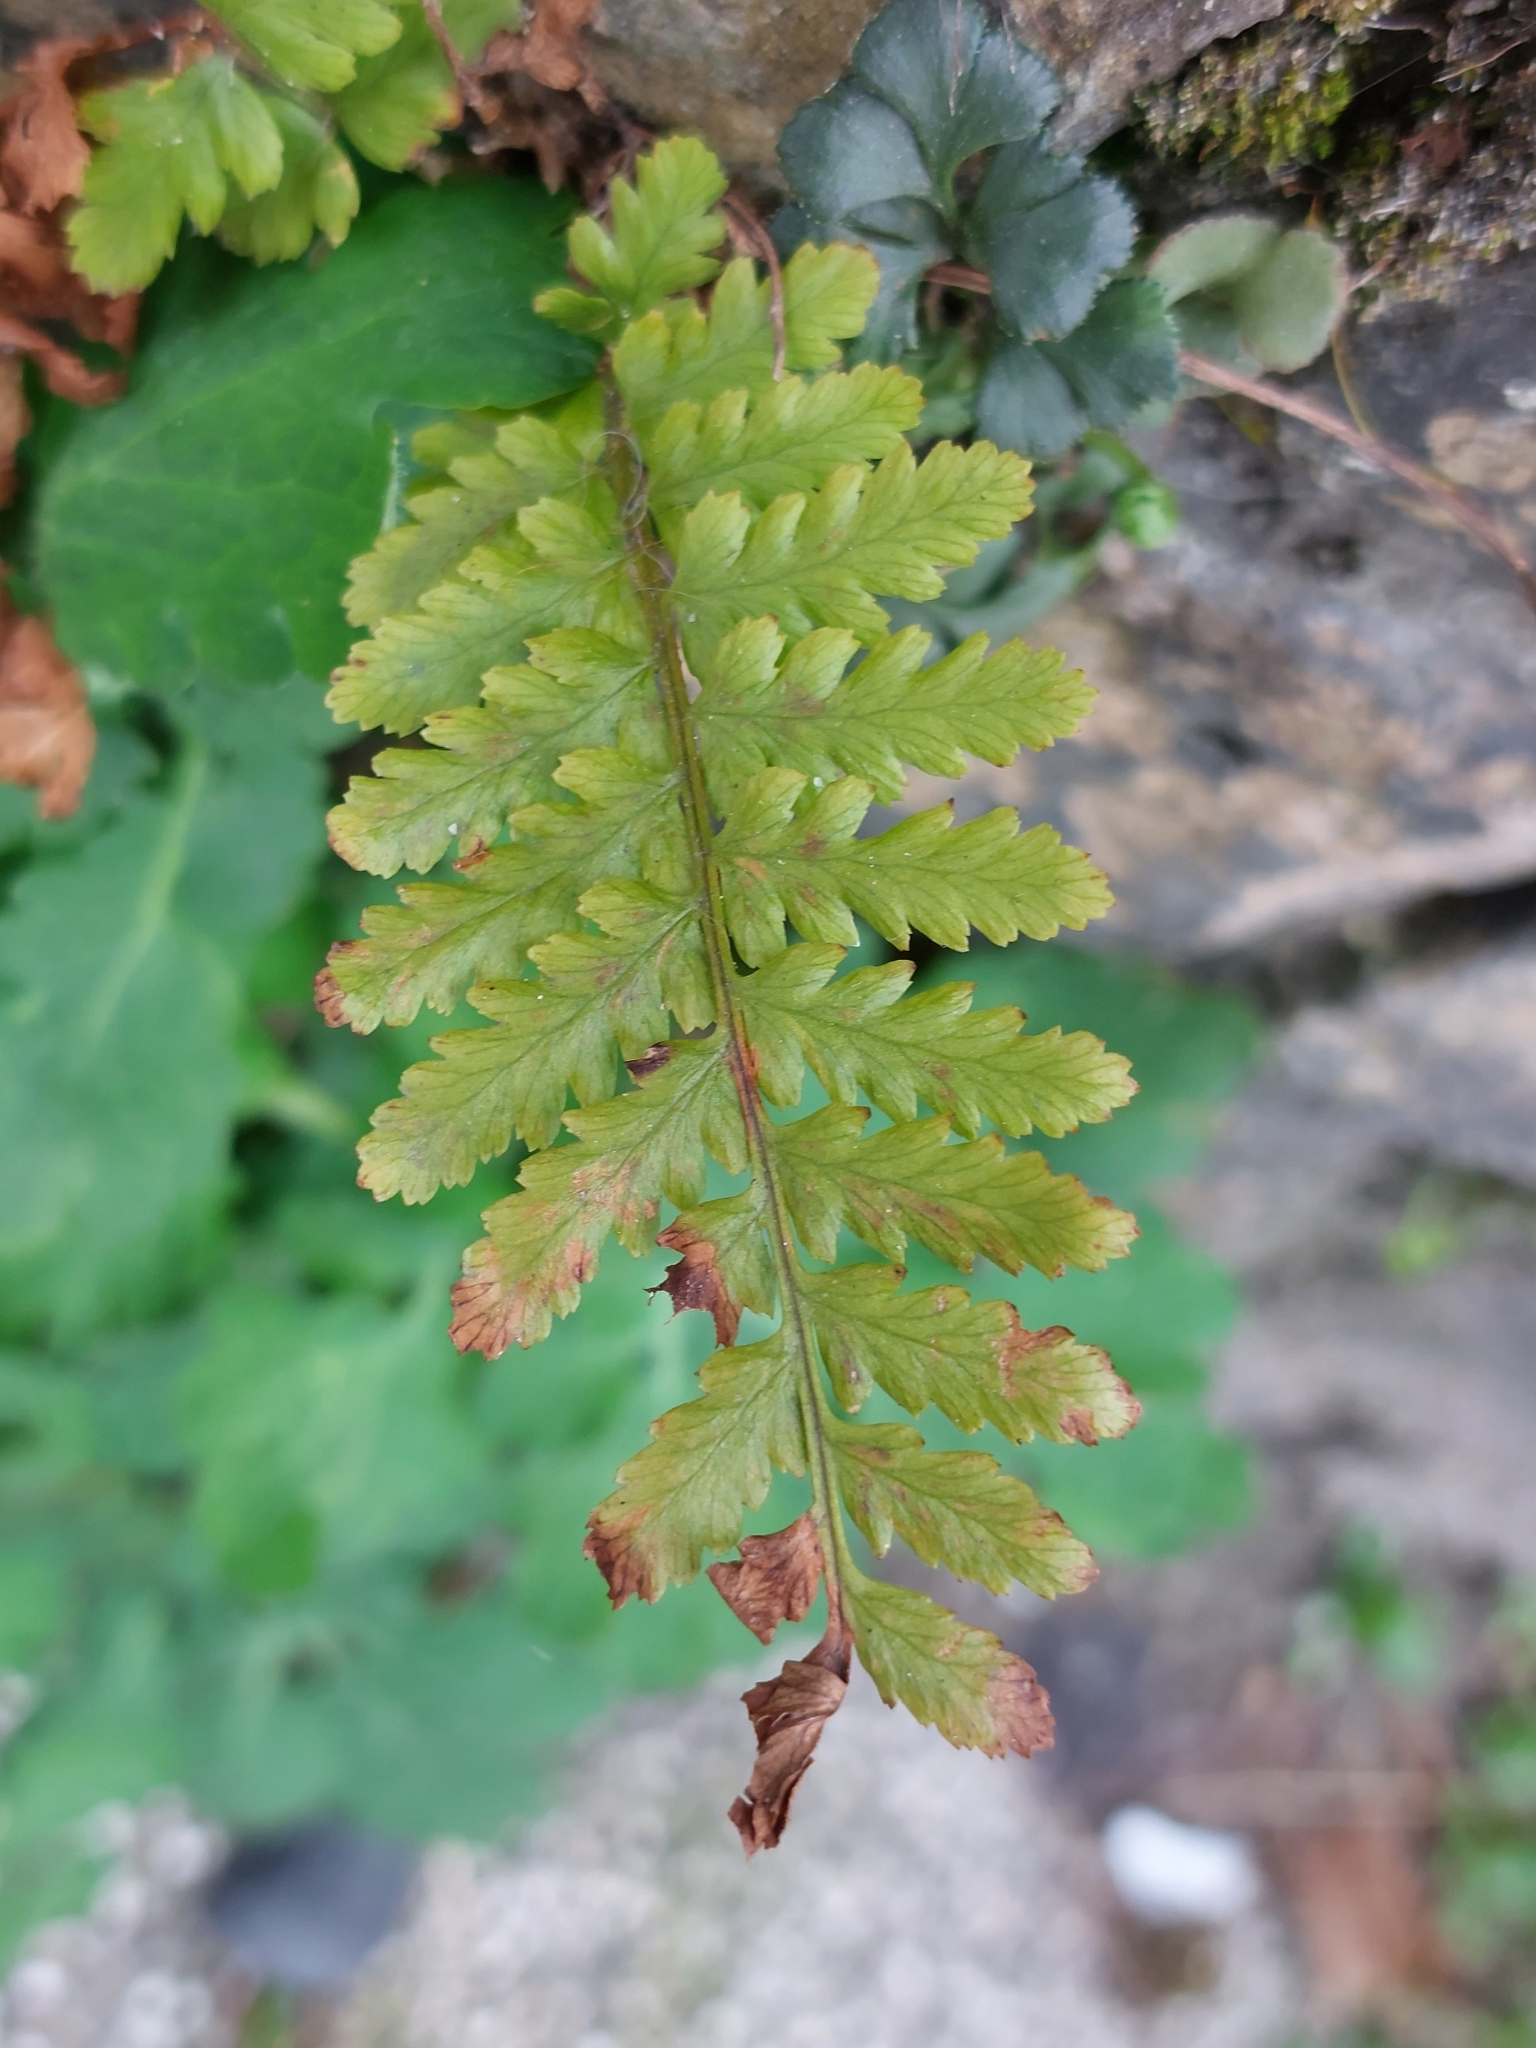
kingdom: Plantae
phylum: Tracheophyta
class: Polypodiopsida
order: Polypodiales
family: Dryopteridaceae
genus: Dryopteris
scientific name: Dryopteris filix-mas
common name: Male fern
